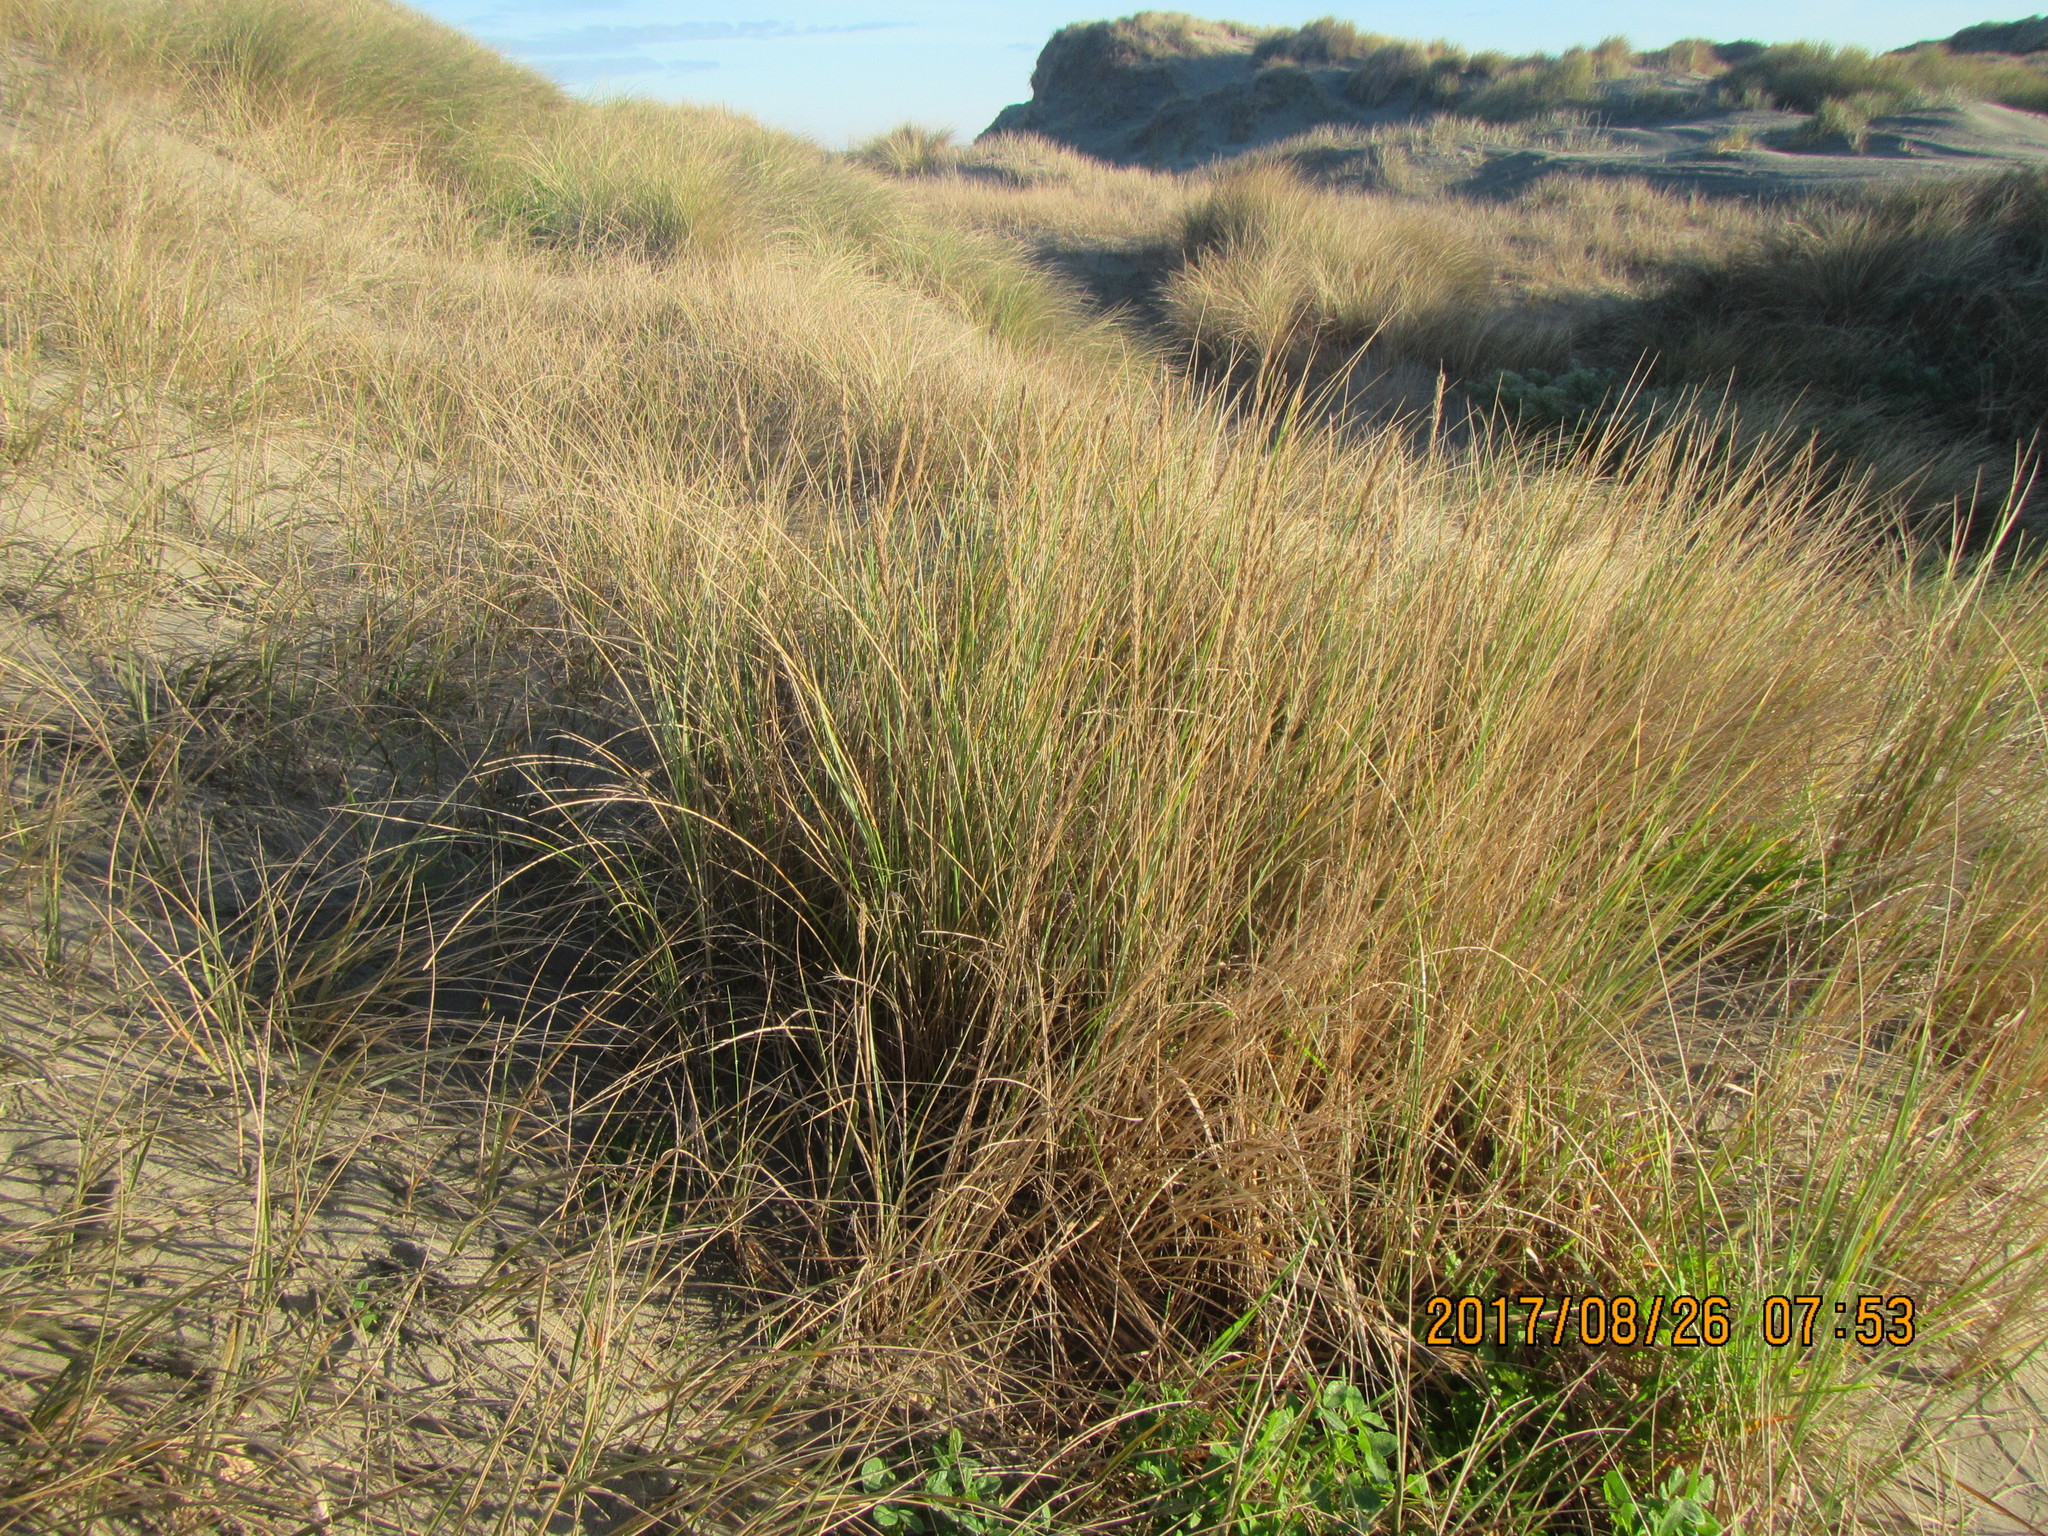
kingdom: Plantae
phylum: Tracheophyta
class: Liliopsida
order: Poales
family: Poaceae
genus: Calamagrostis
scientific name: Calamagrostis arenaria
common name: European beachgrass
